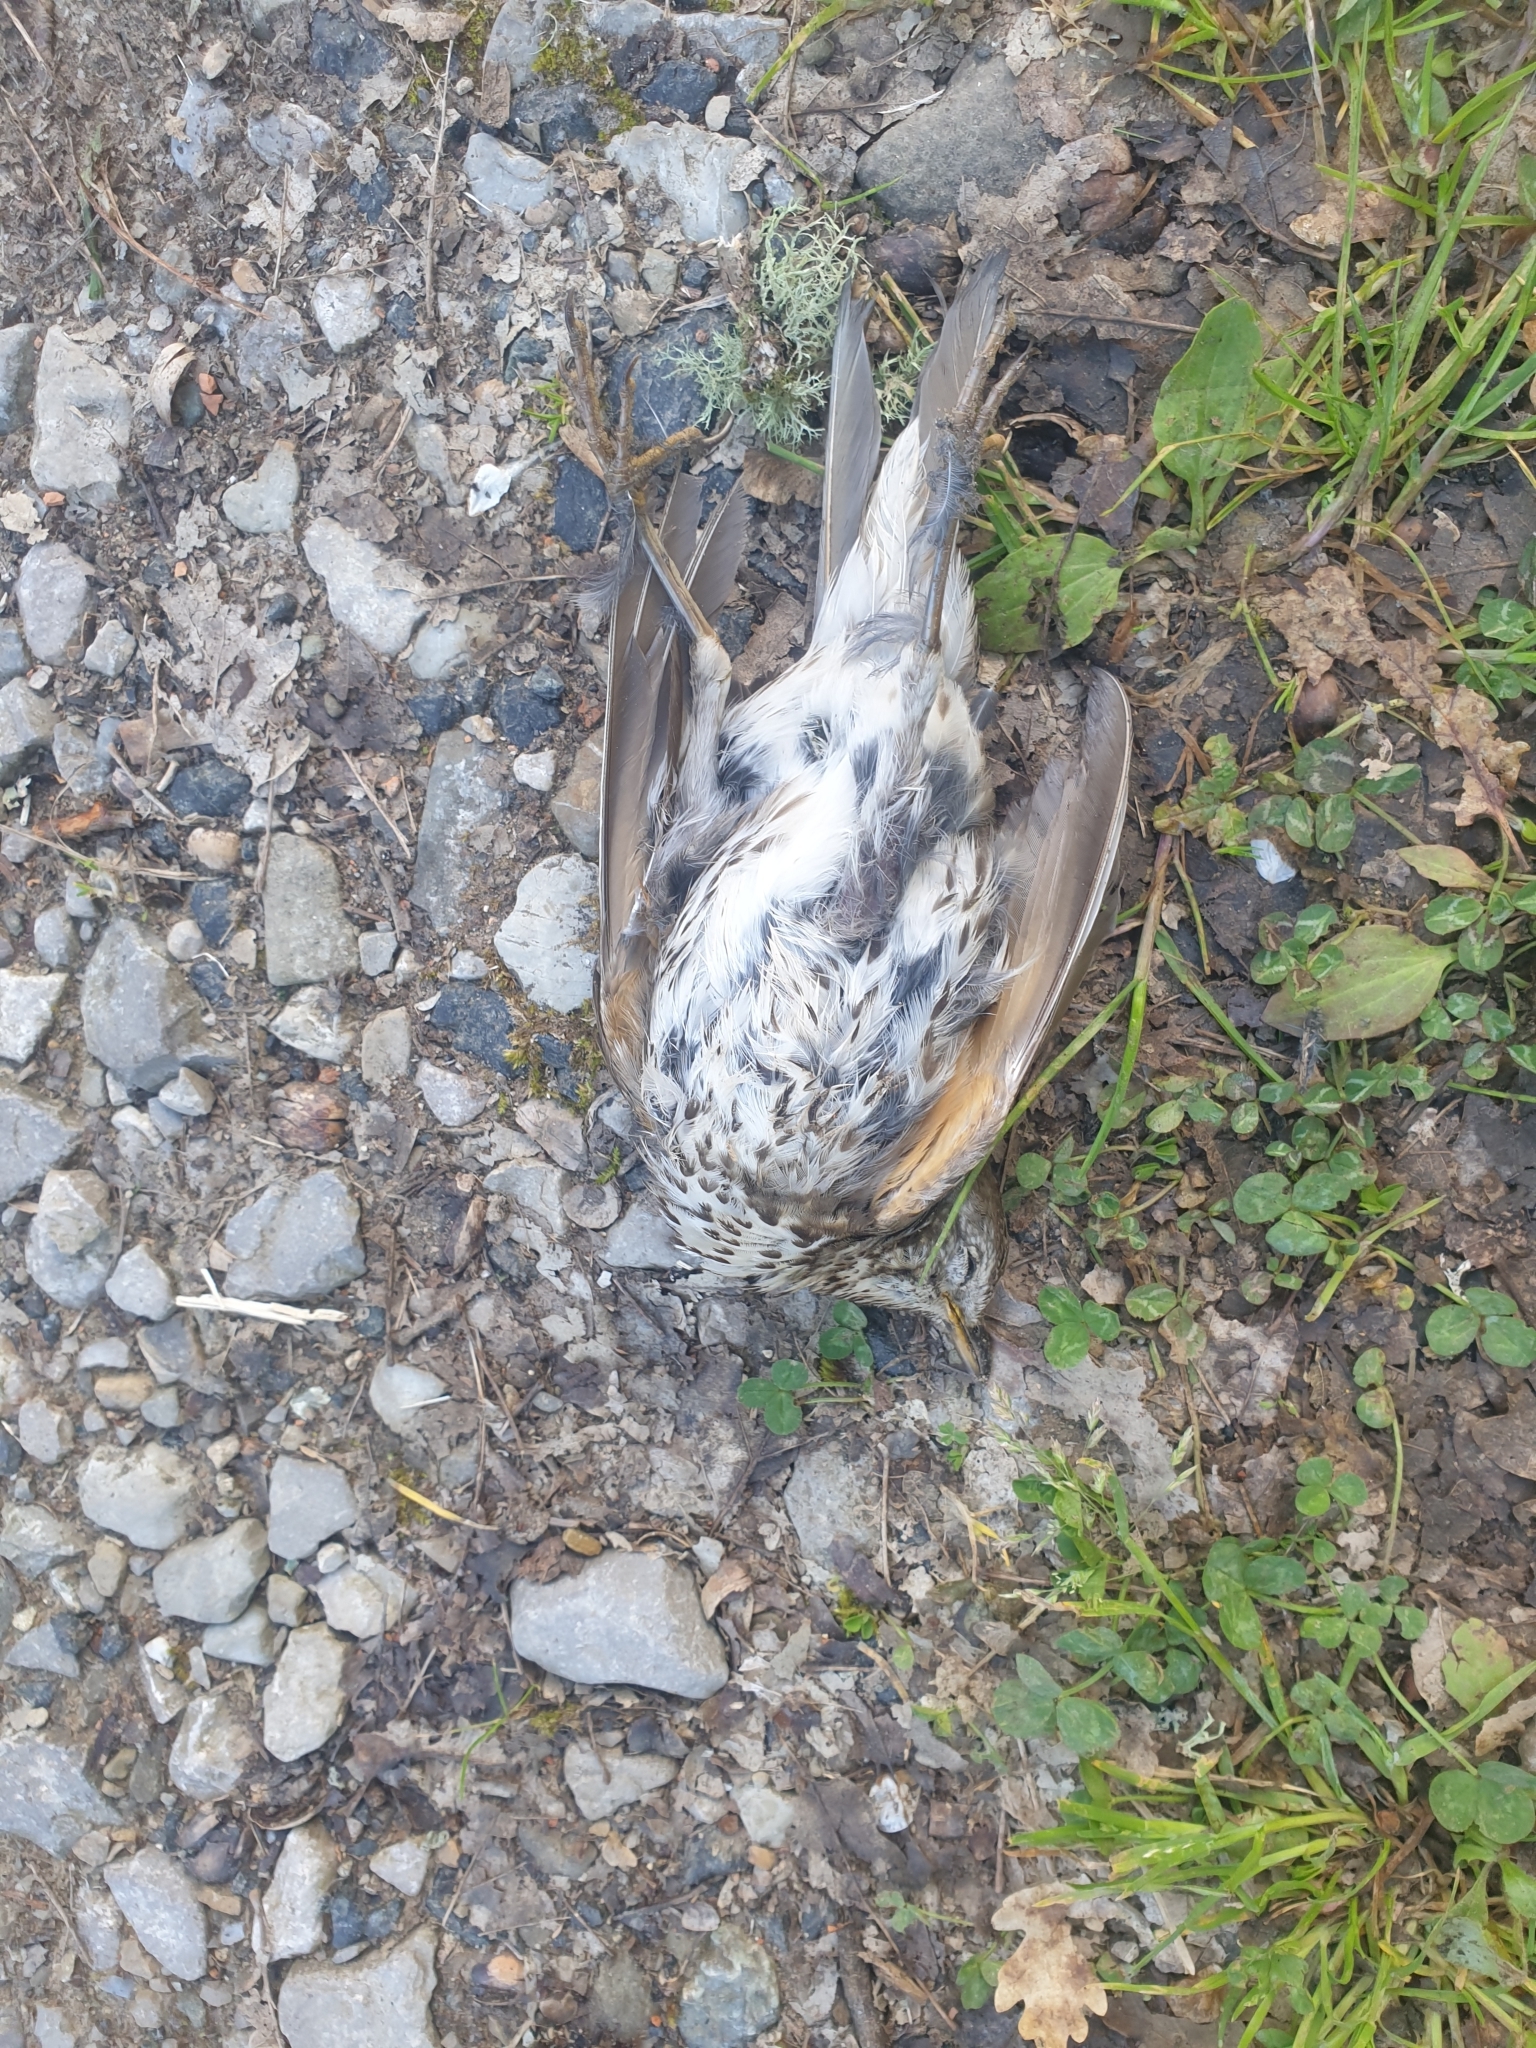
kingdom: Animalia
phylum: Chordata
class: Aves
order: Passeriformes
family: Turdidae
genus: Turdus
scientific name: Turdus philomelos
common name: Song thrush
